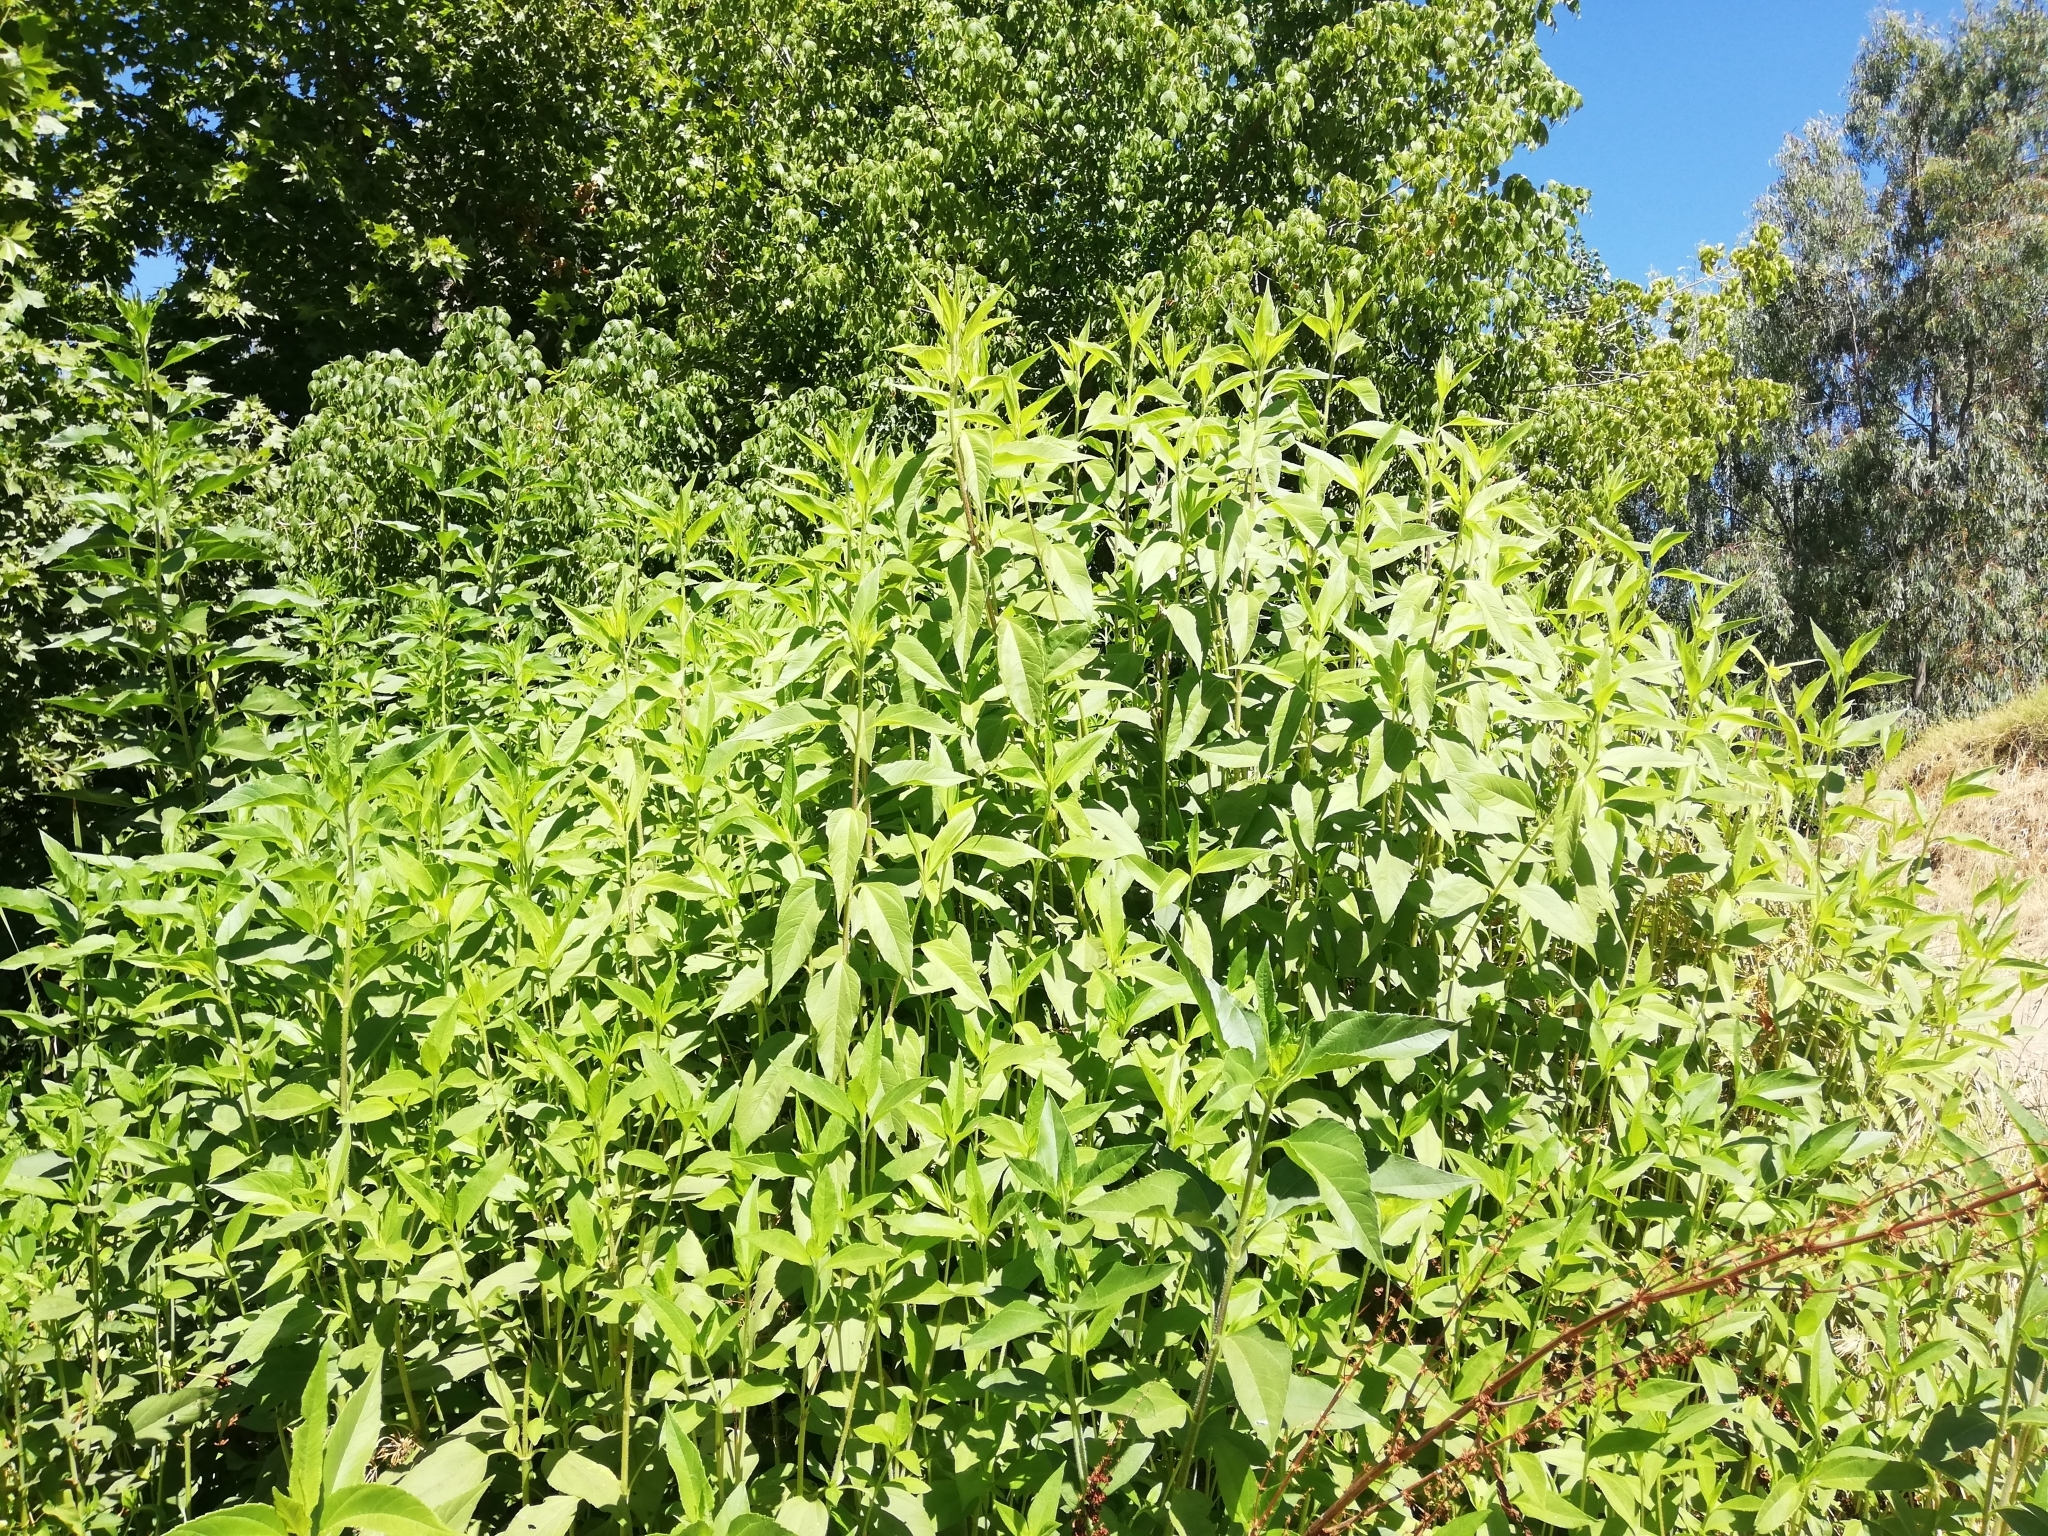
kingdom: Plantae
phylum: Tracheophyta
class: Magnoliopsida
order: Asterales
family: Asteraceae
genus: Helianthus
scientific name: Helianthus tuberosus
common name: Jerusalem artichoke
